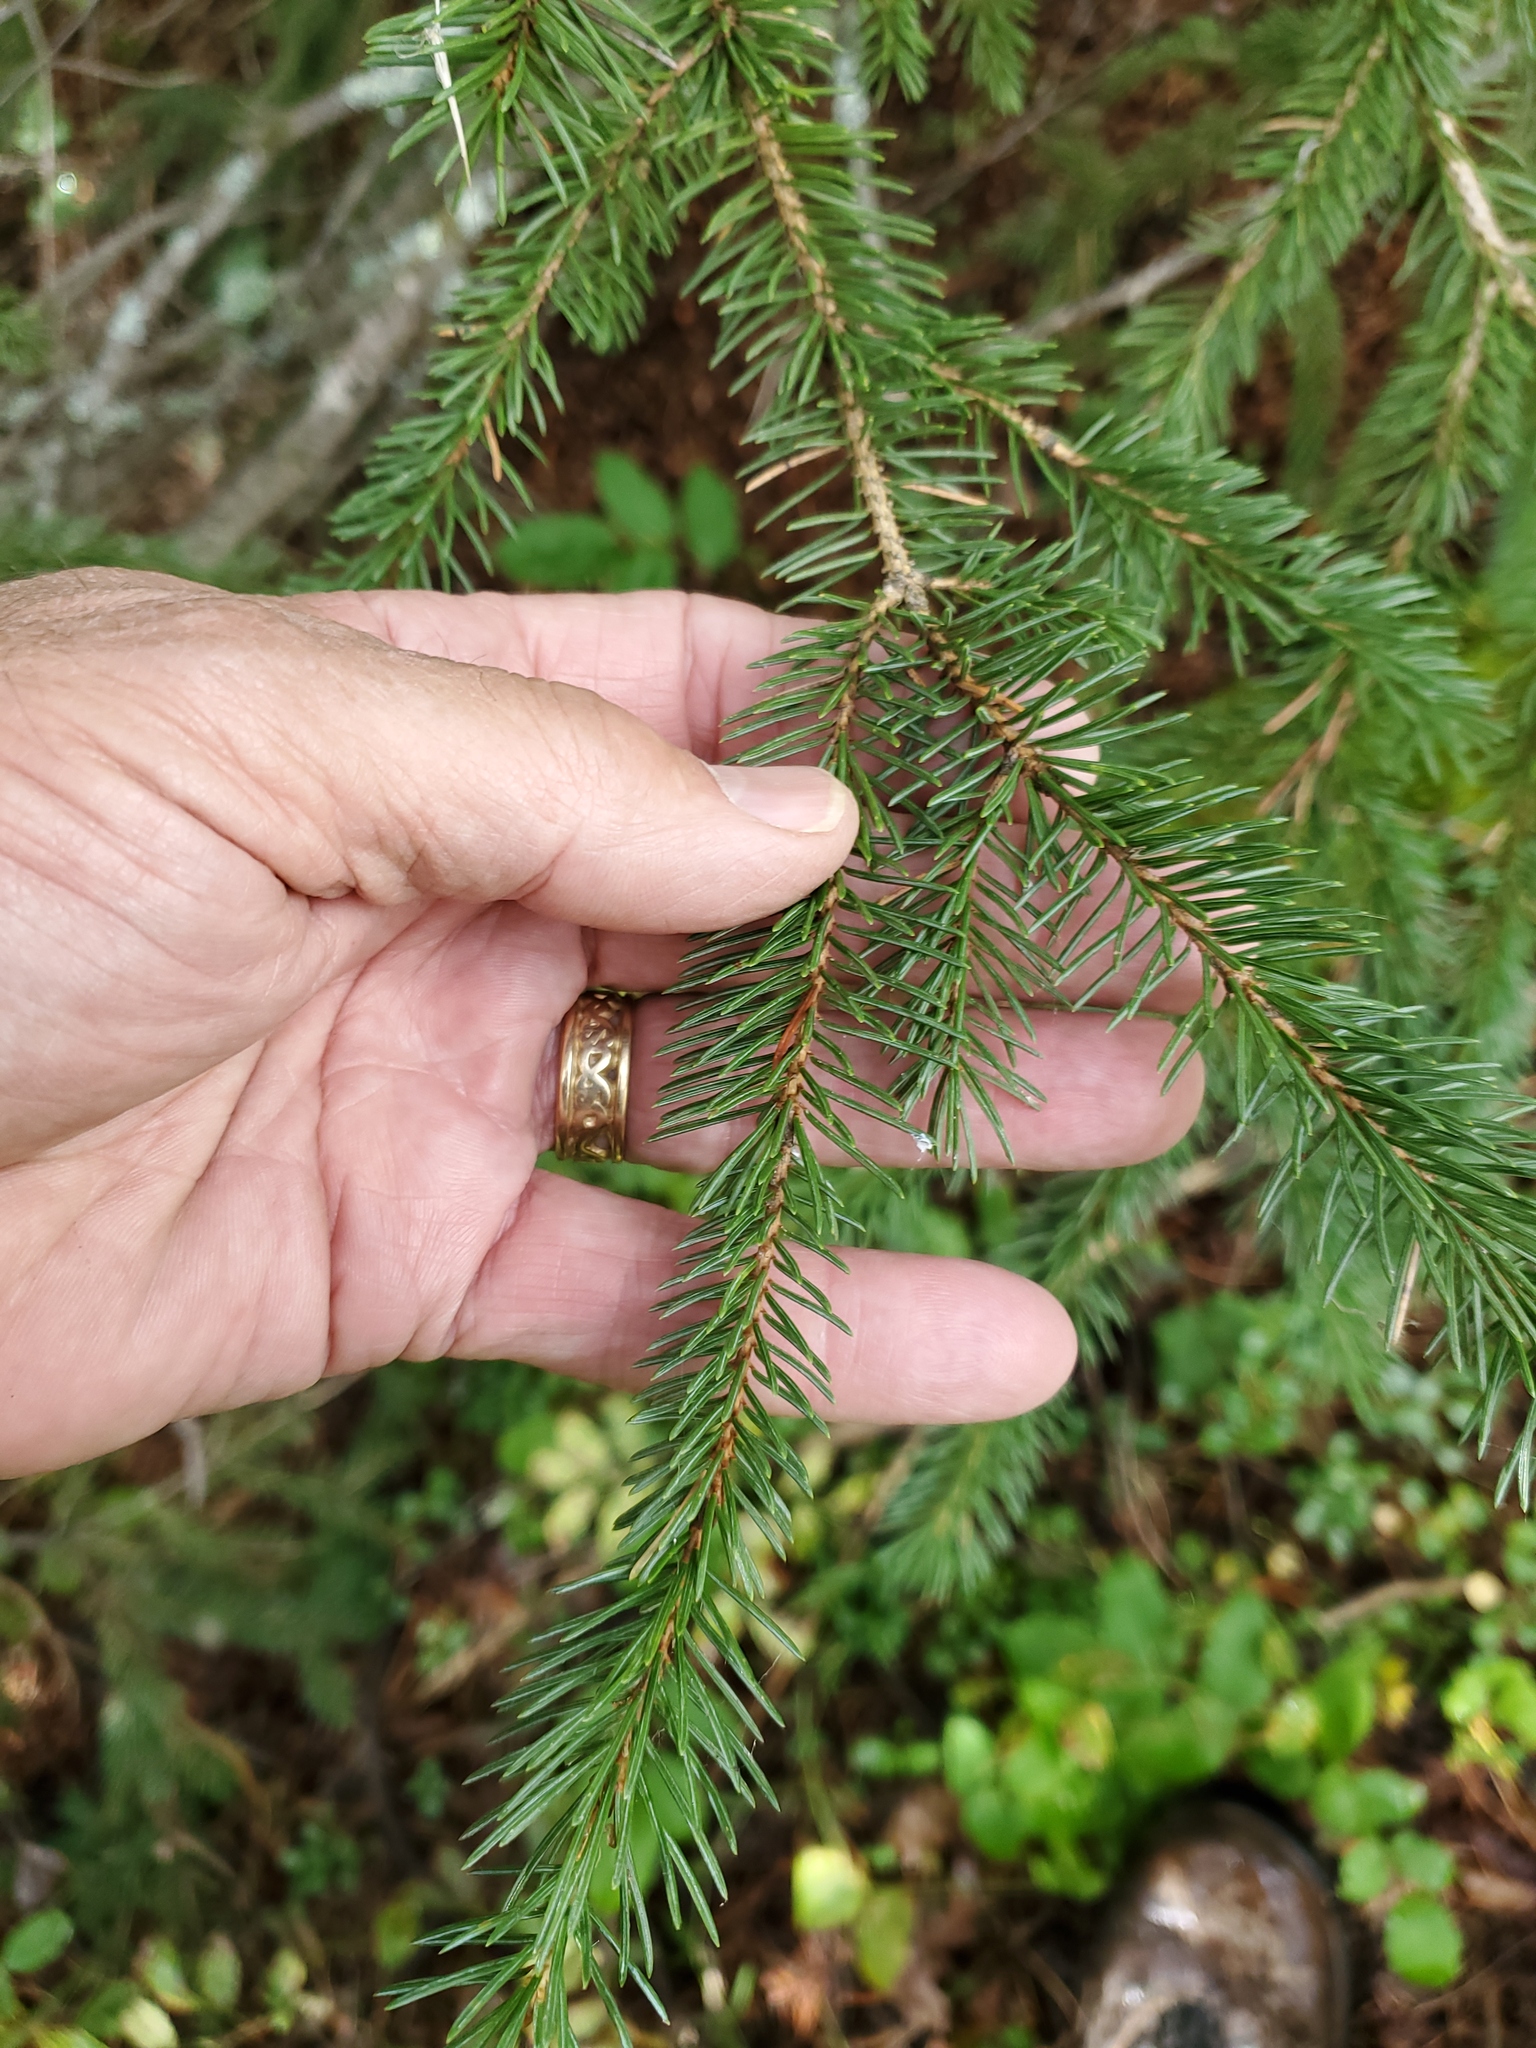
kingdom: Plantae
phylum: Tracheophyta
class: Pinopsida
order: Pinales
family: Pinaceae
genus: Picea
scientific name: Picea engelmannii
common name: Engelmann spruce
